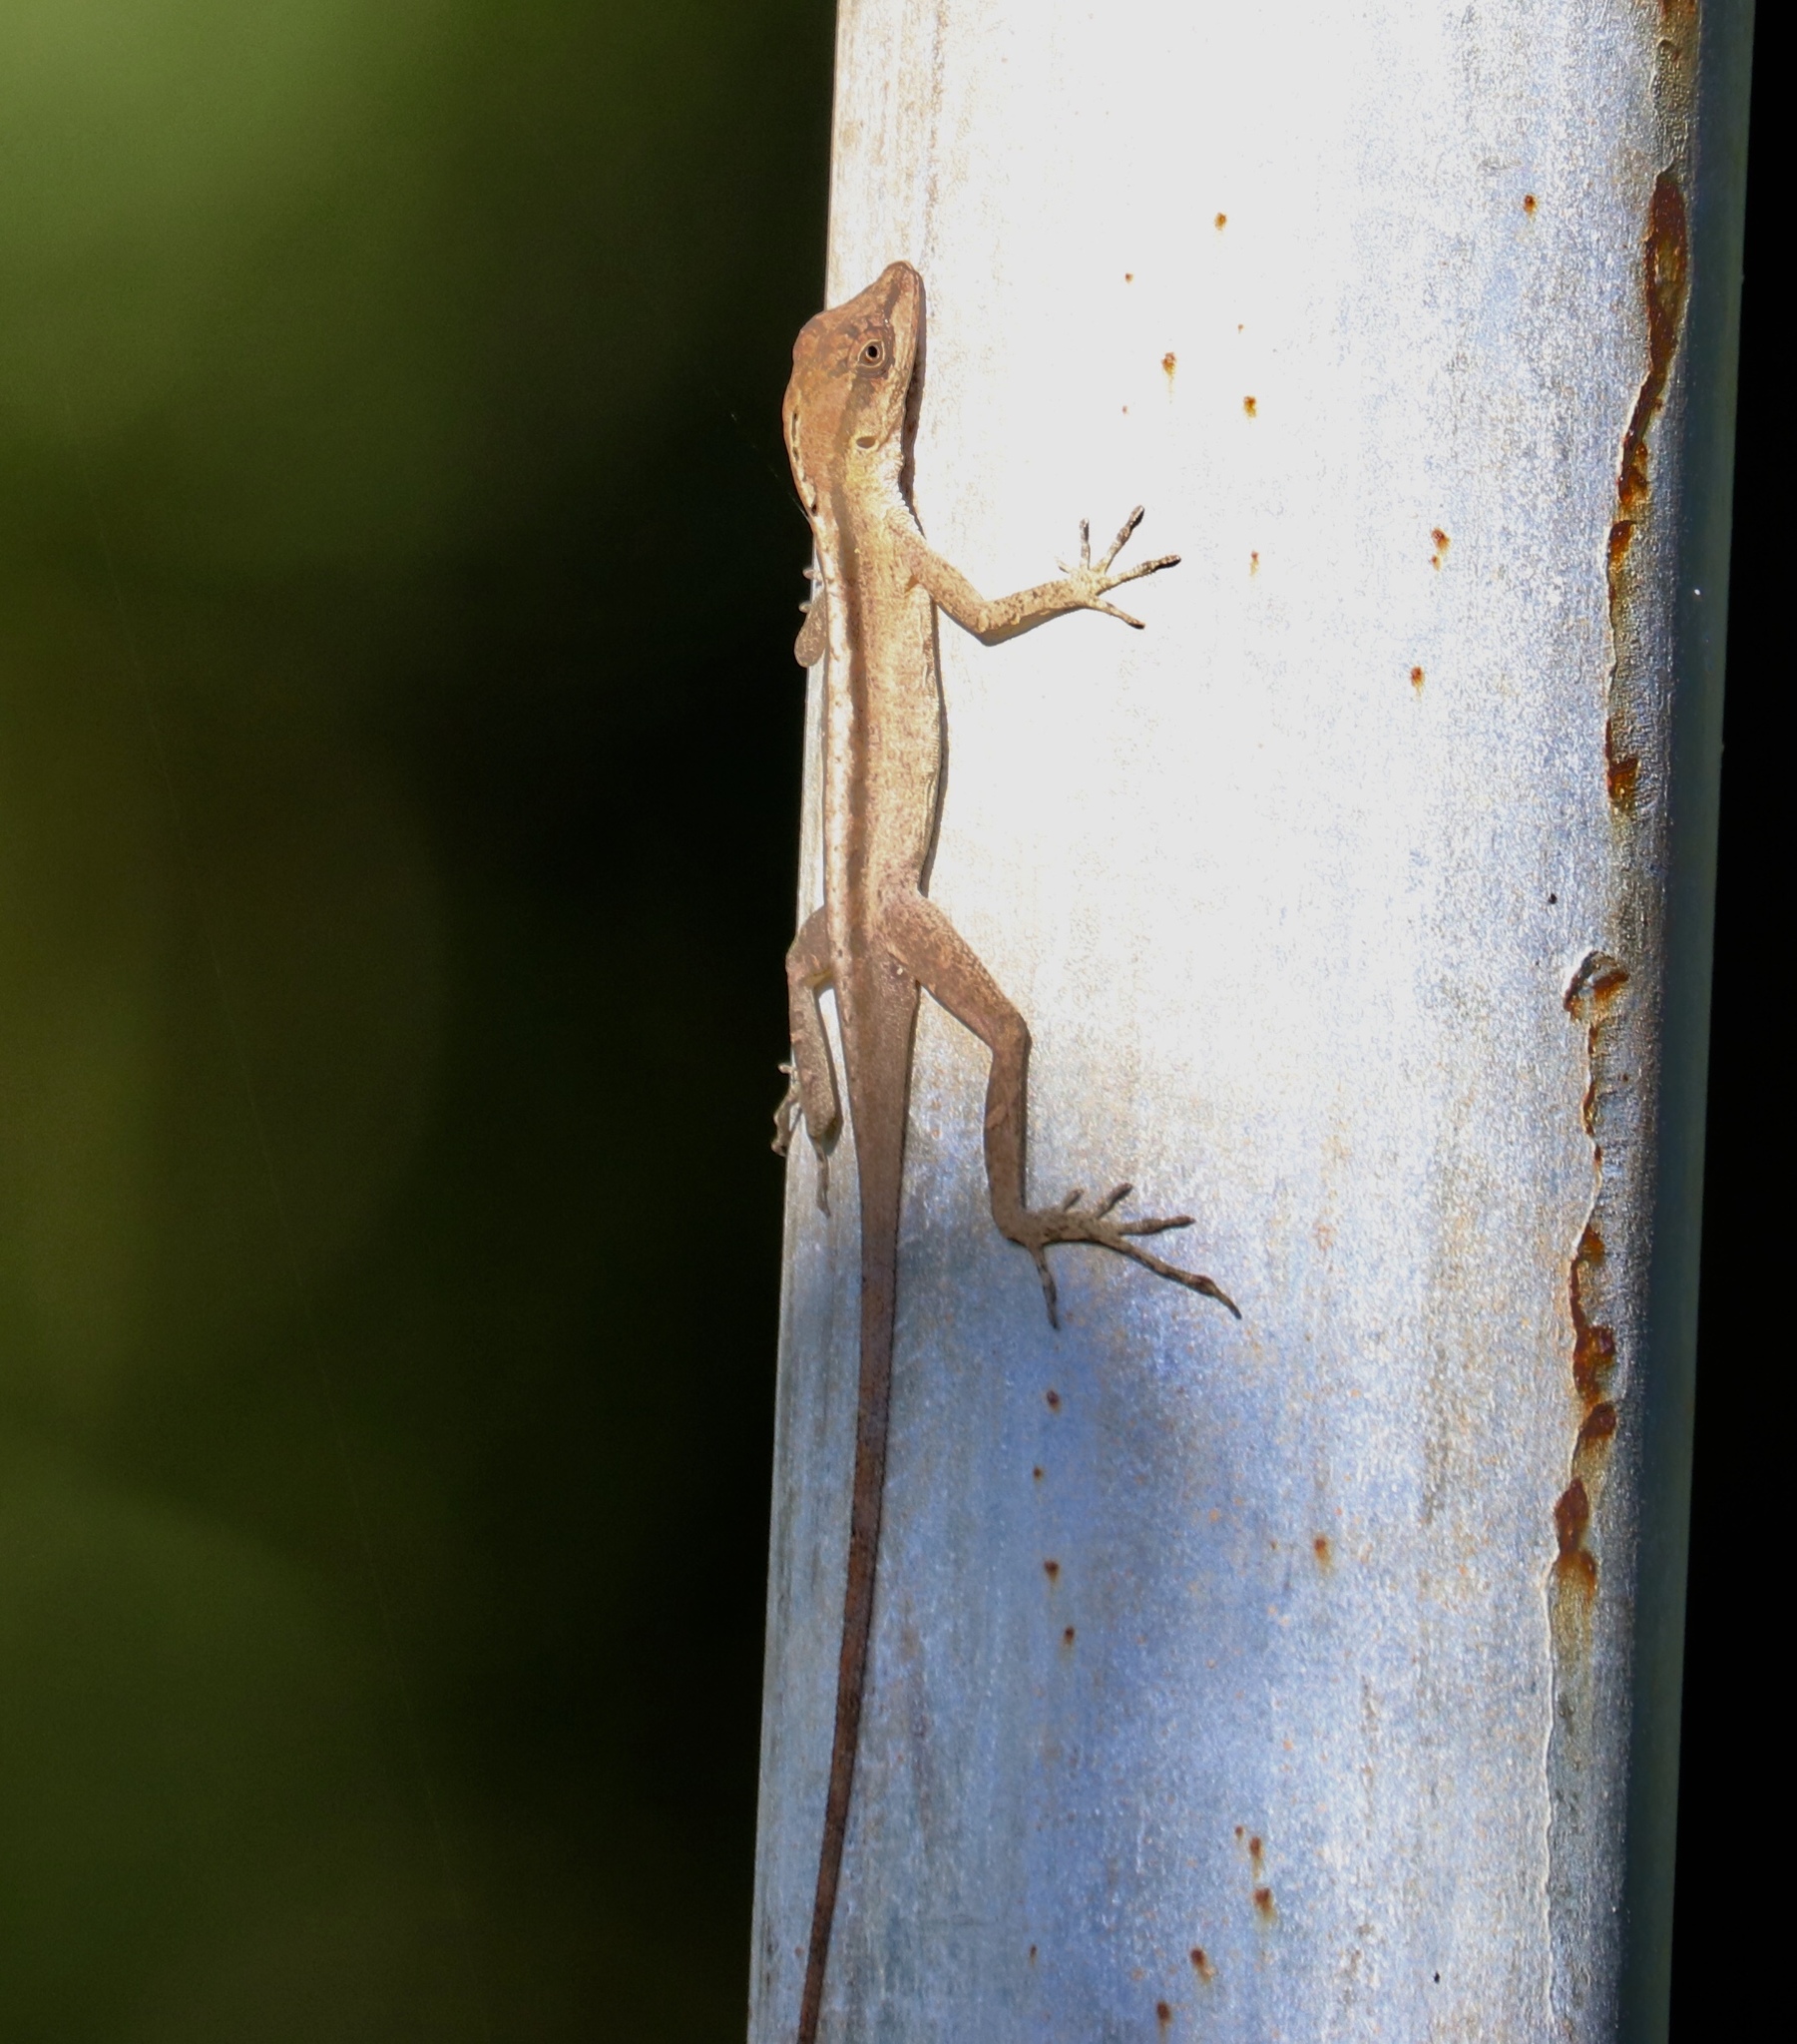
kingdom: Animalia
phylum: Chordata
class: Squamata
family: Dactyloidae
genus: Anolis
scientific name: Anolis auratus
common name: Grass anole
